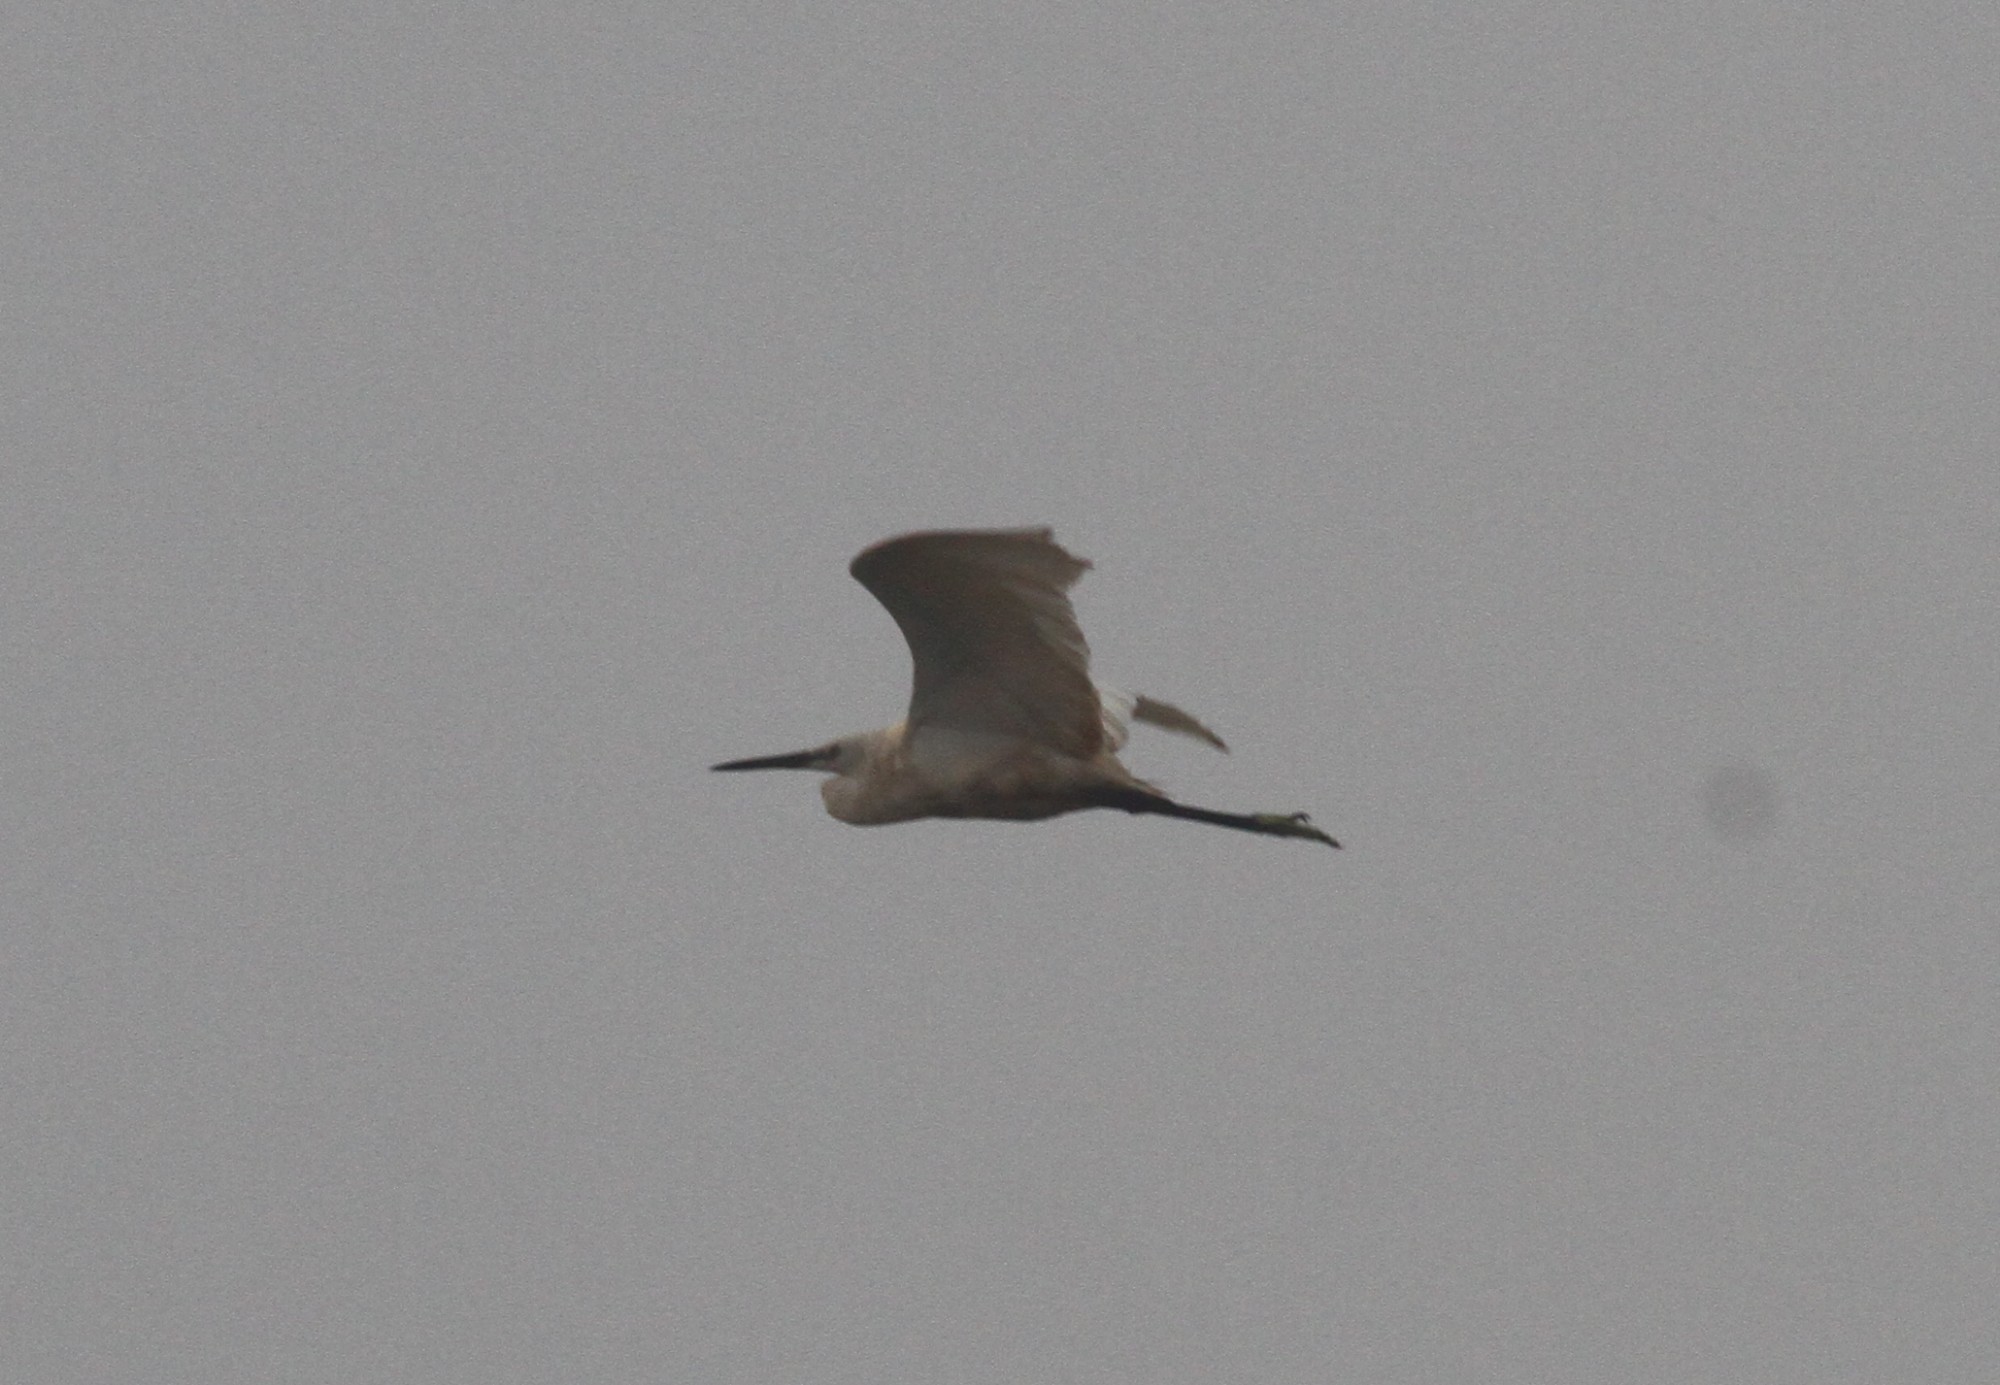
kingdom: Animalia
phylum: Chordata
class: Aves
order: Pelecaniformes
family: Ardeidae
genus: Egretta
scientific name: Egretta garzetta
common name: Little egret
